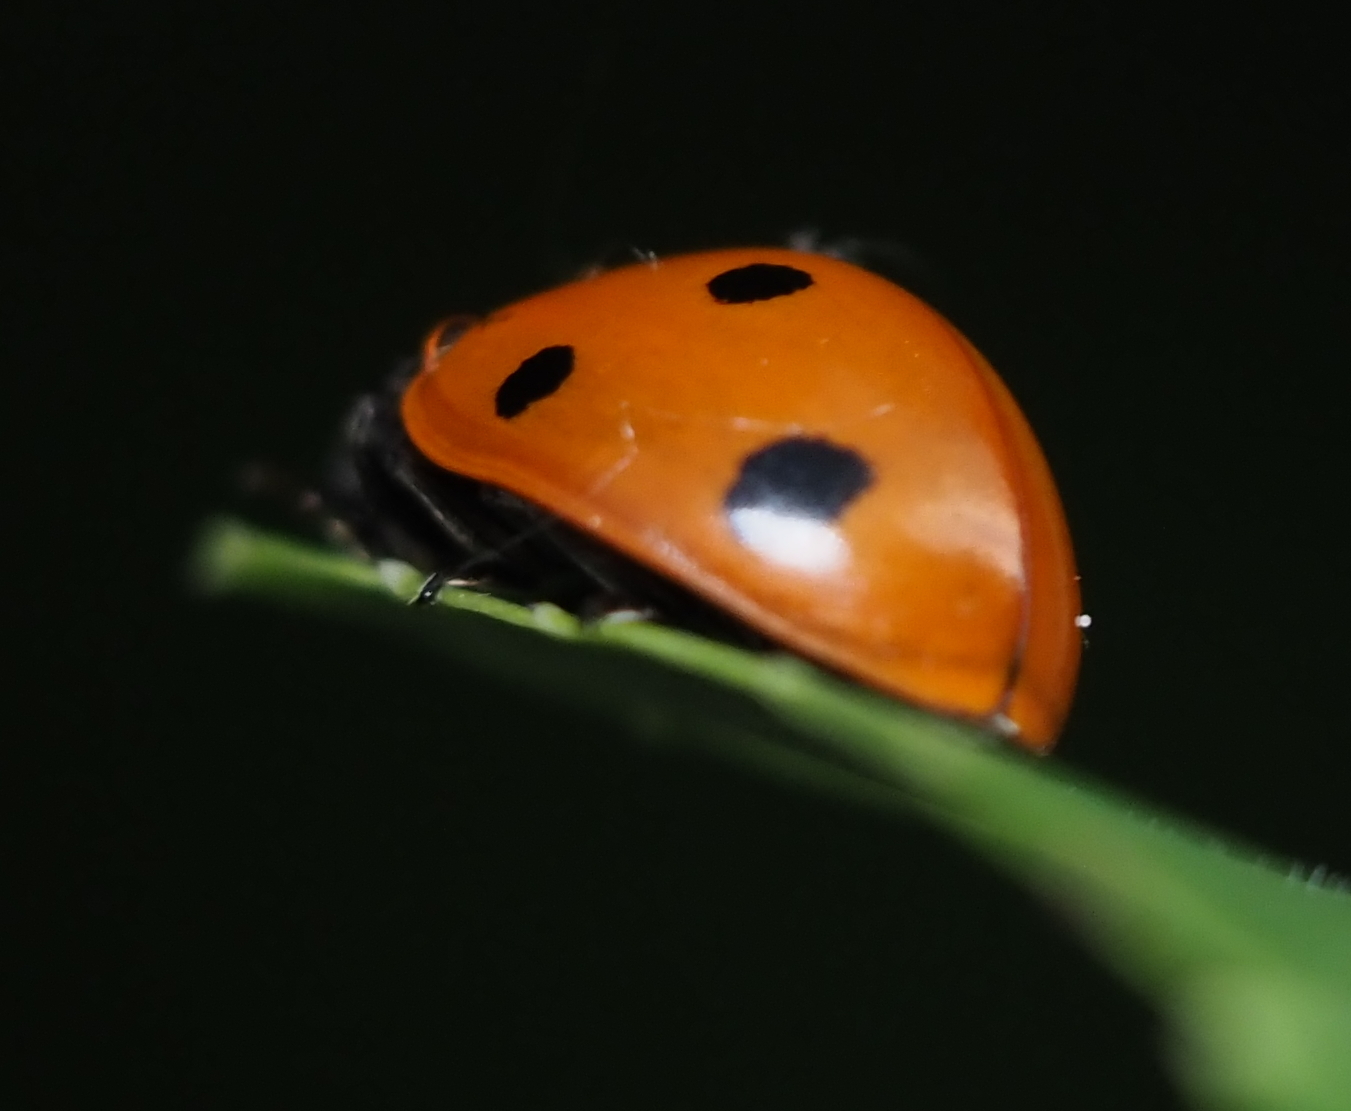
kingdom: Animalia
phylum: Arthropoda
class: Insecta
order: Coleoptera
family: Coccinellidae
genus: Coccinella
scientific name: Coccinella septempunctata
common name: Sevenspotted lady beetle
